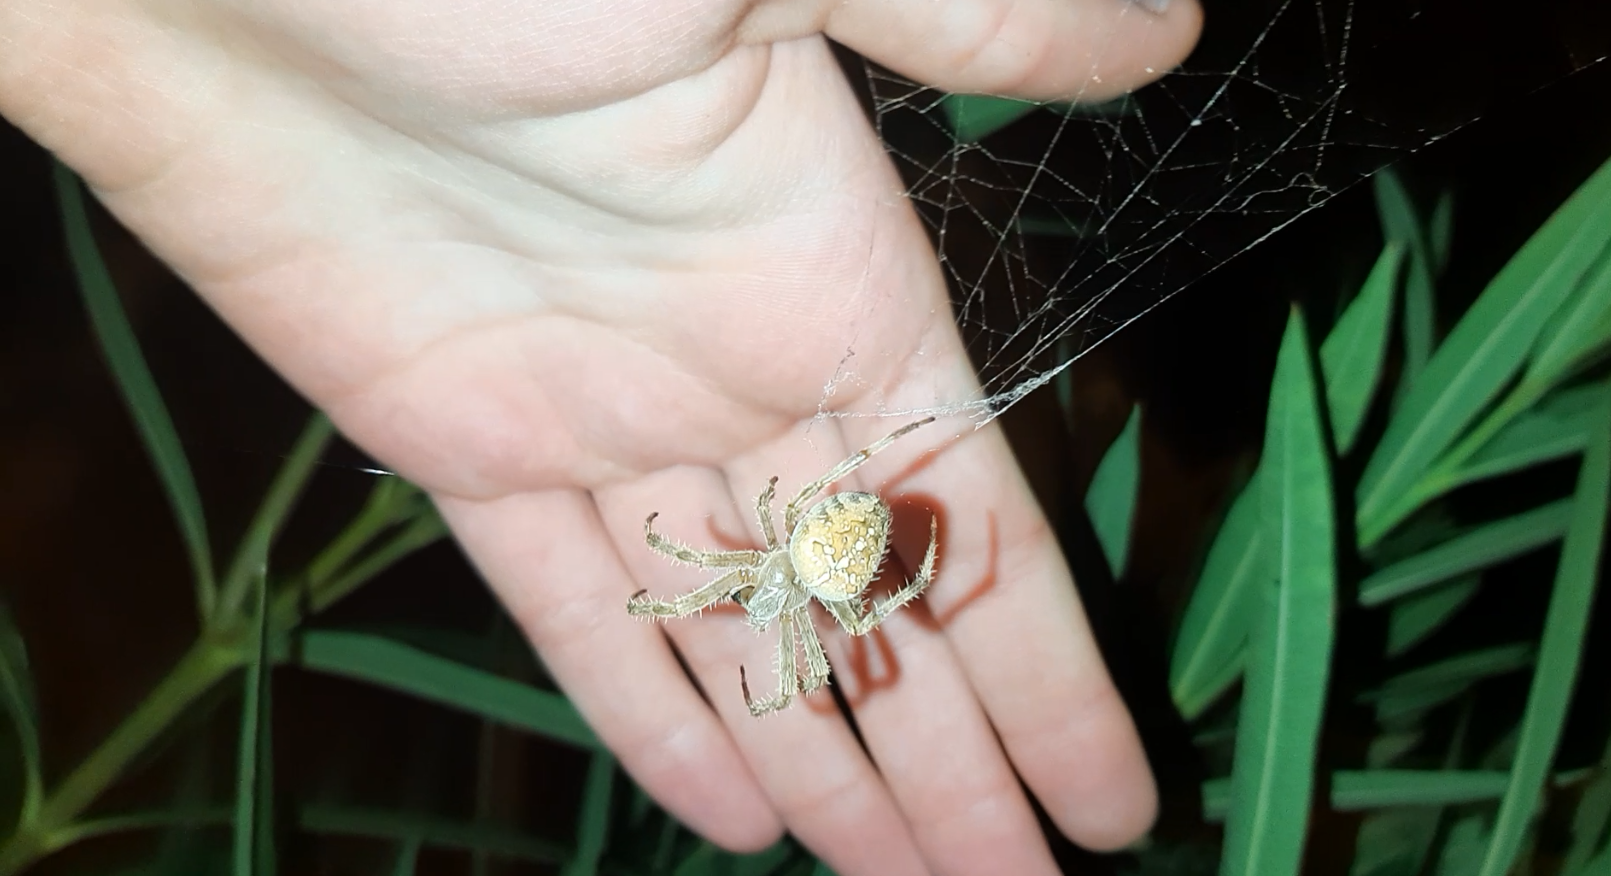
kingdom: Animalia
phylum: Arthropoda
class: Arachnida
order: Araneae
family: Araneidae
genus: Araneus
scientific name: Araneus diadematus
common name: Cross orbweaver
